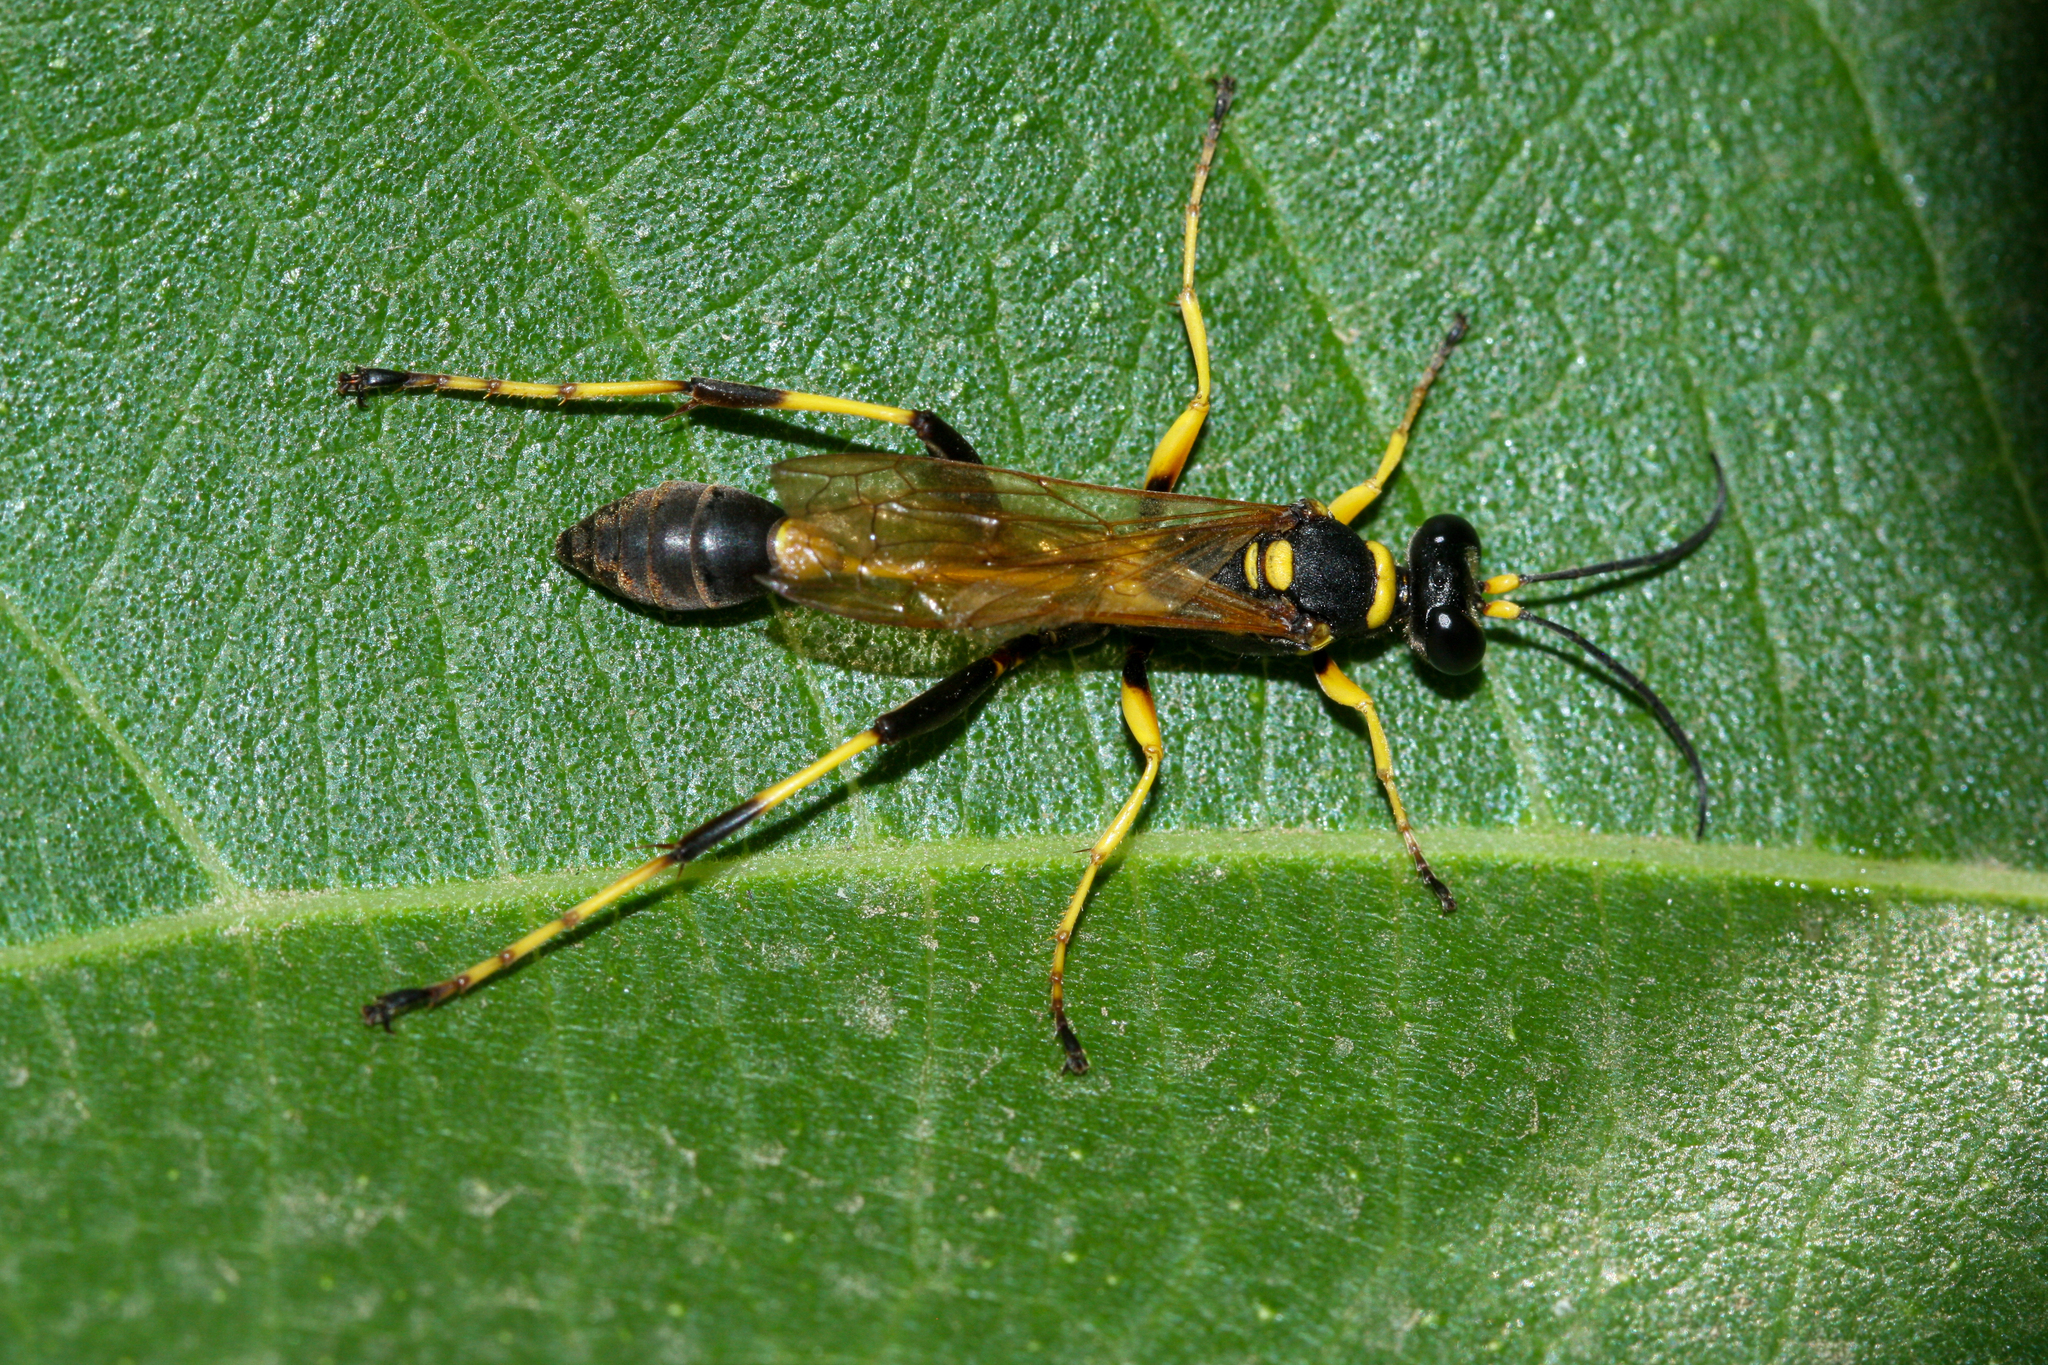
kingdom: Animalia
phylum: Arthropoda
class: Insecta
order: Hymenoptera
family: Sphecidae
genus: Sceliphron
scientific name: Sceliphron caementarium
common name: Mud dauber
